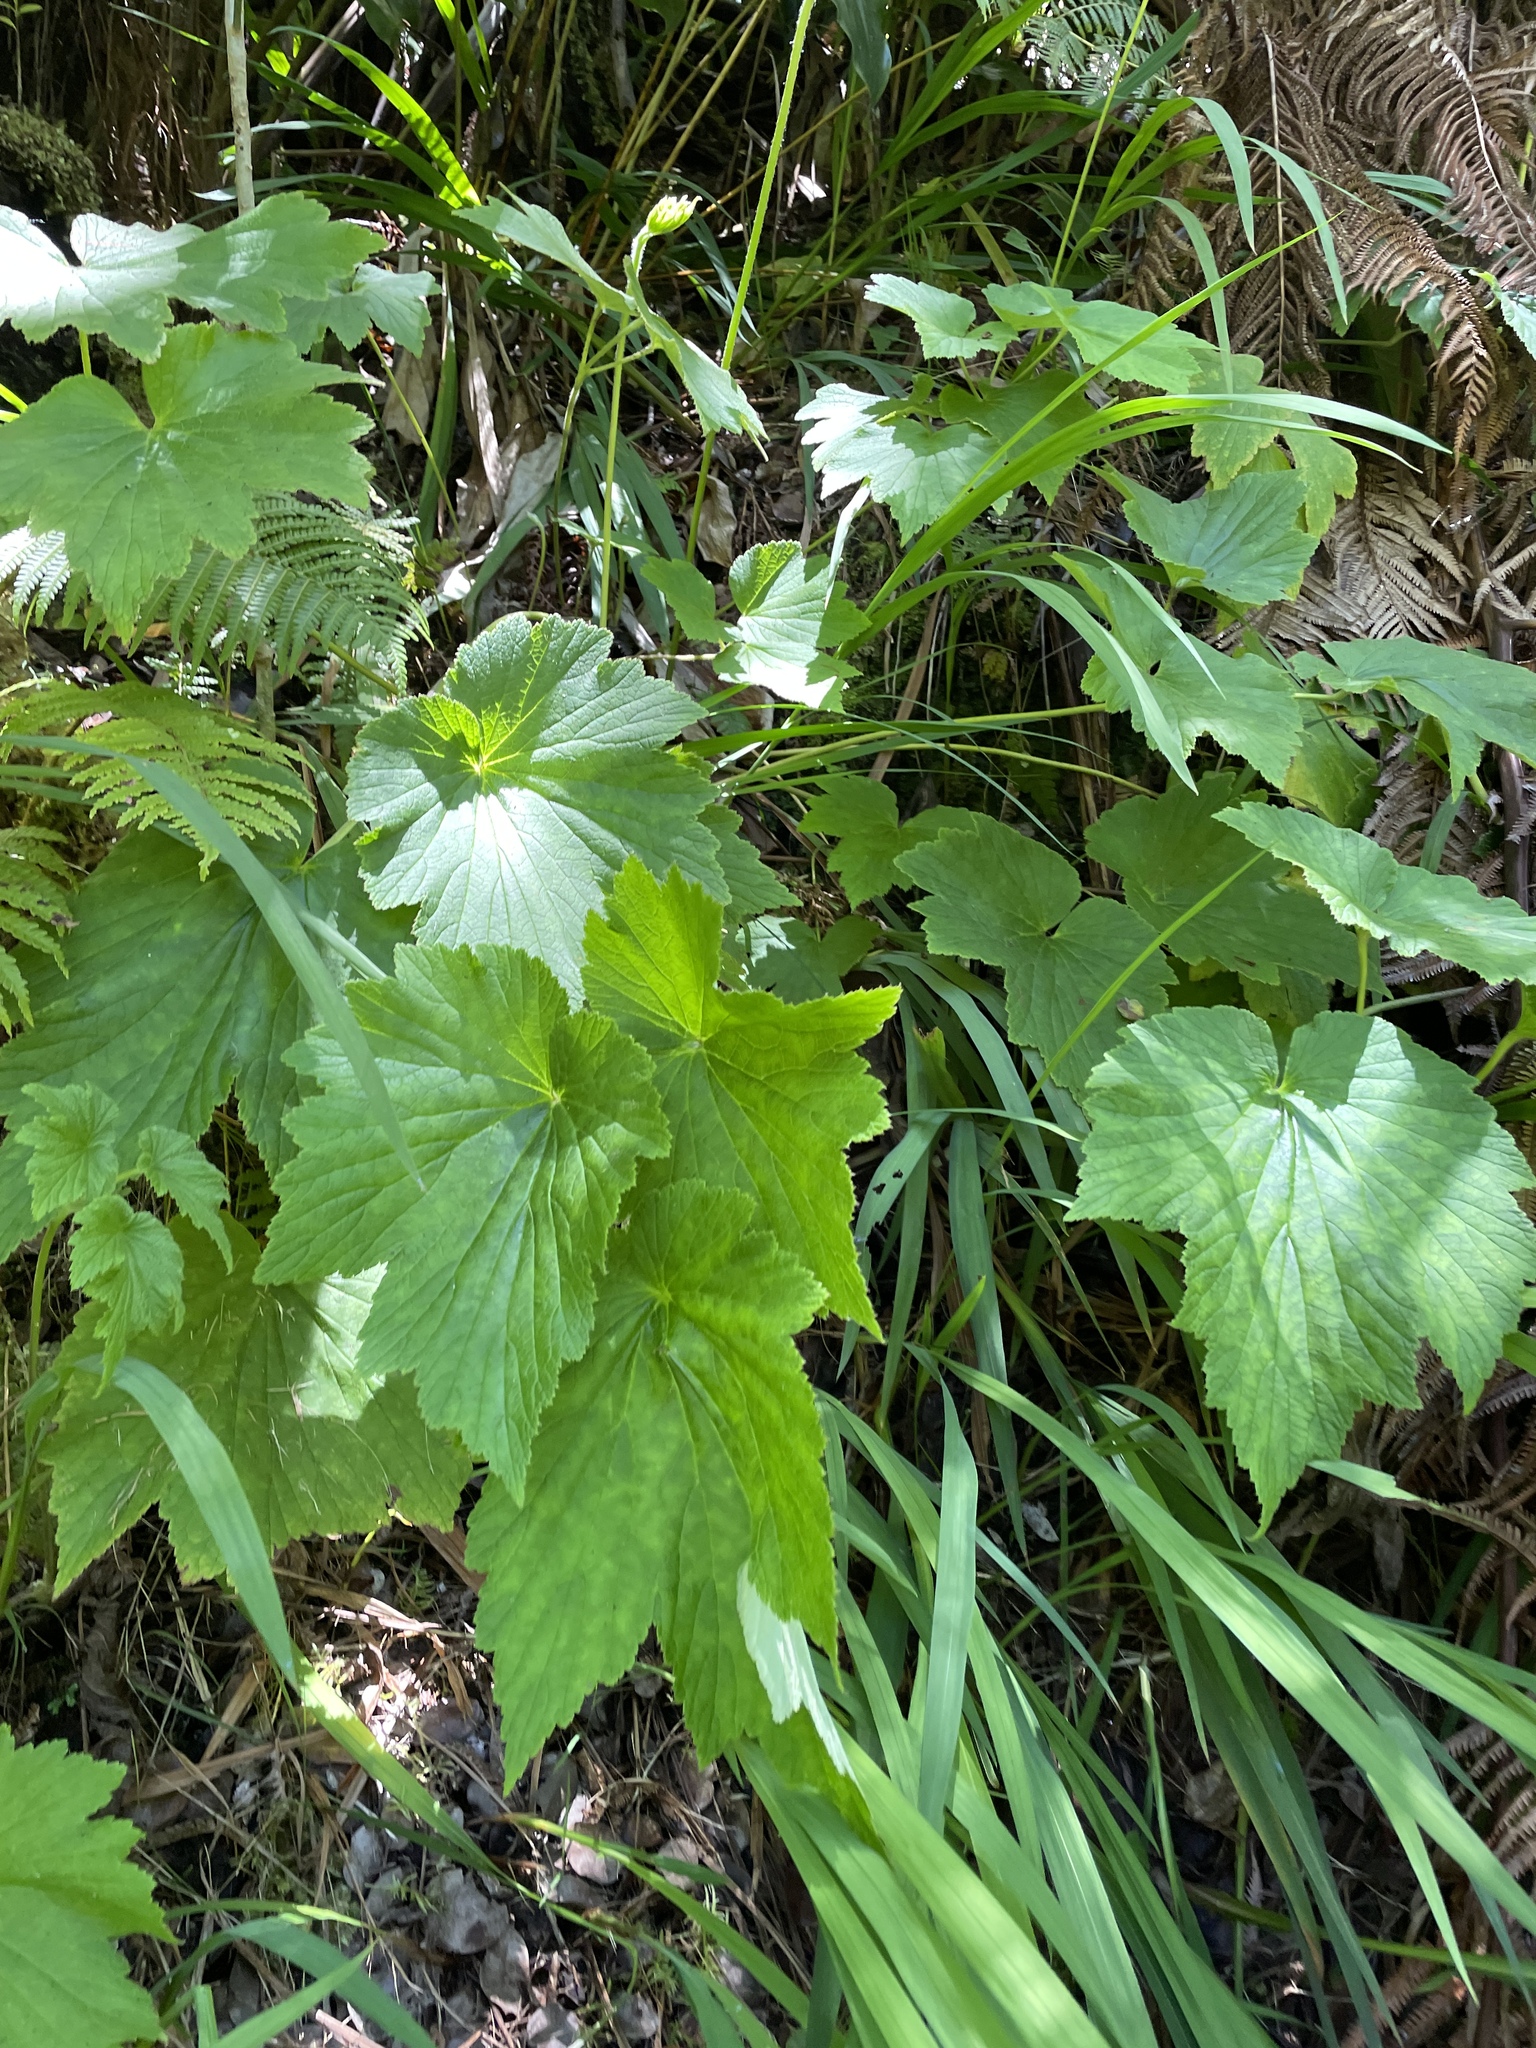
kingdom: Plantae
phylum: Tracheophyta
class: Magnoliopsida
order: Ranunculales
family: Ranunculaceae
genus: Eriocapitella
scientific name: Eriocapitella japonica
